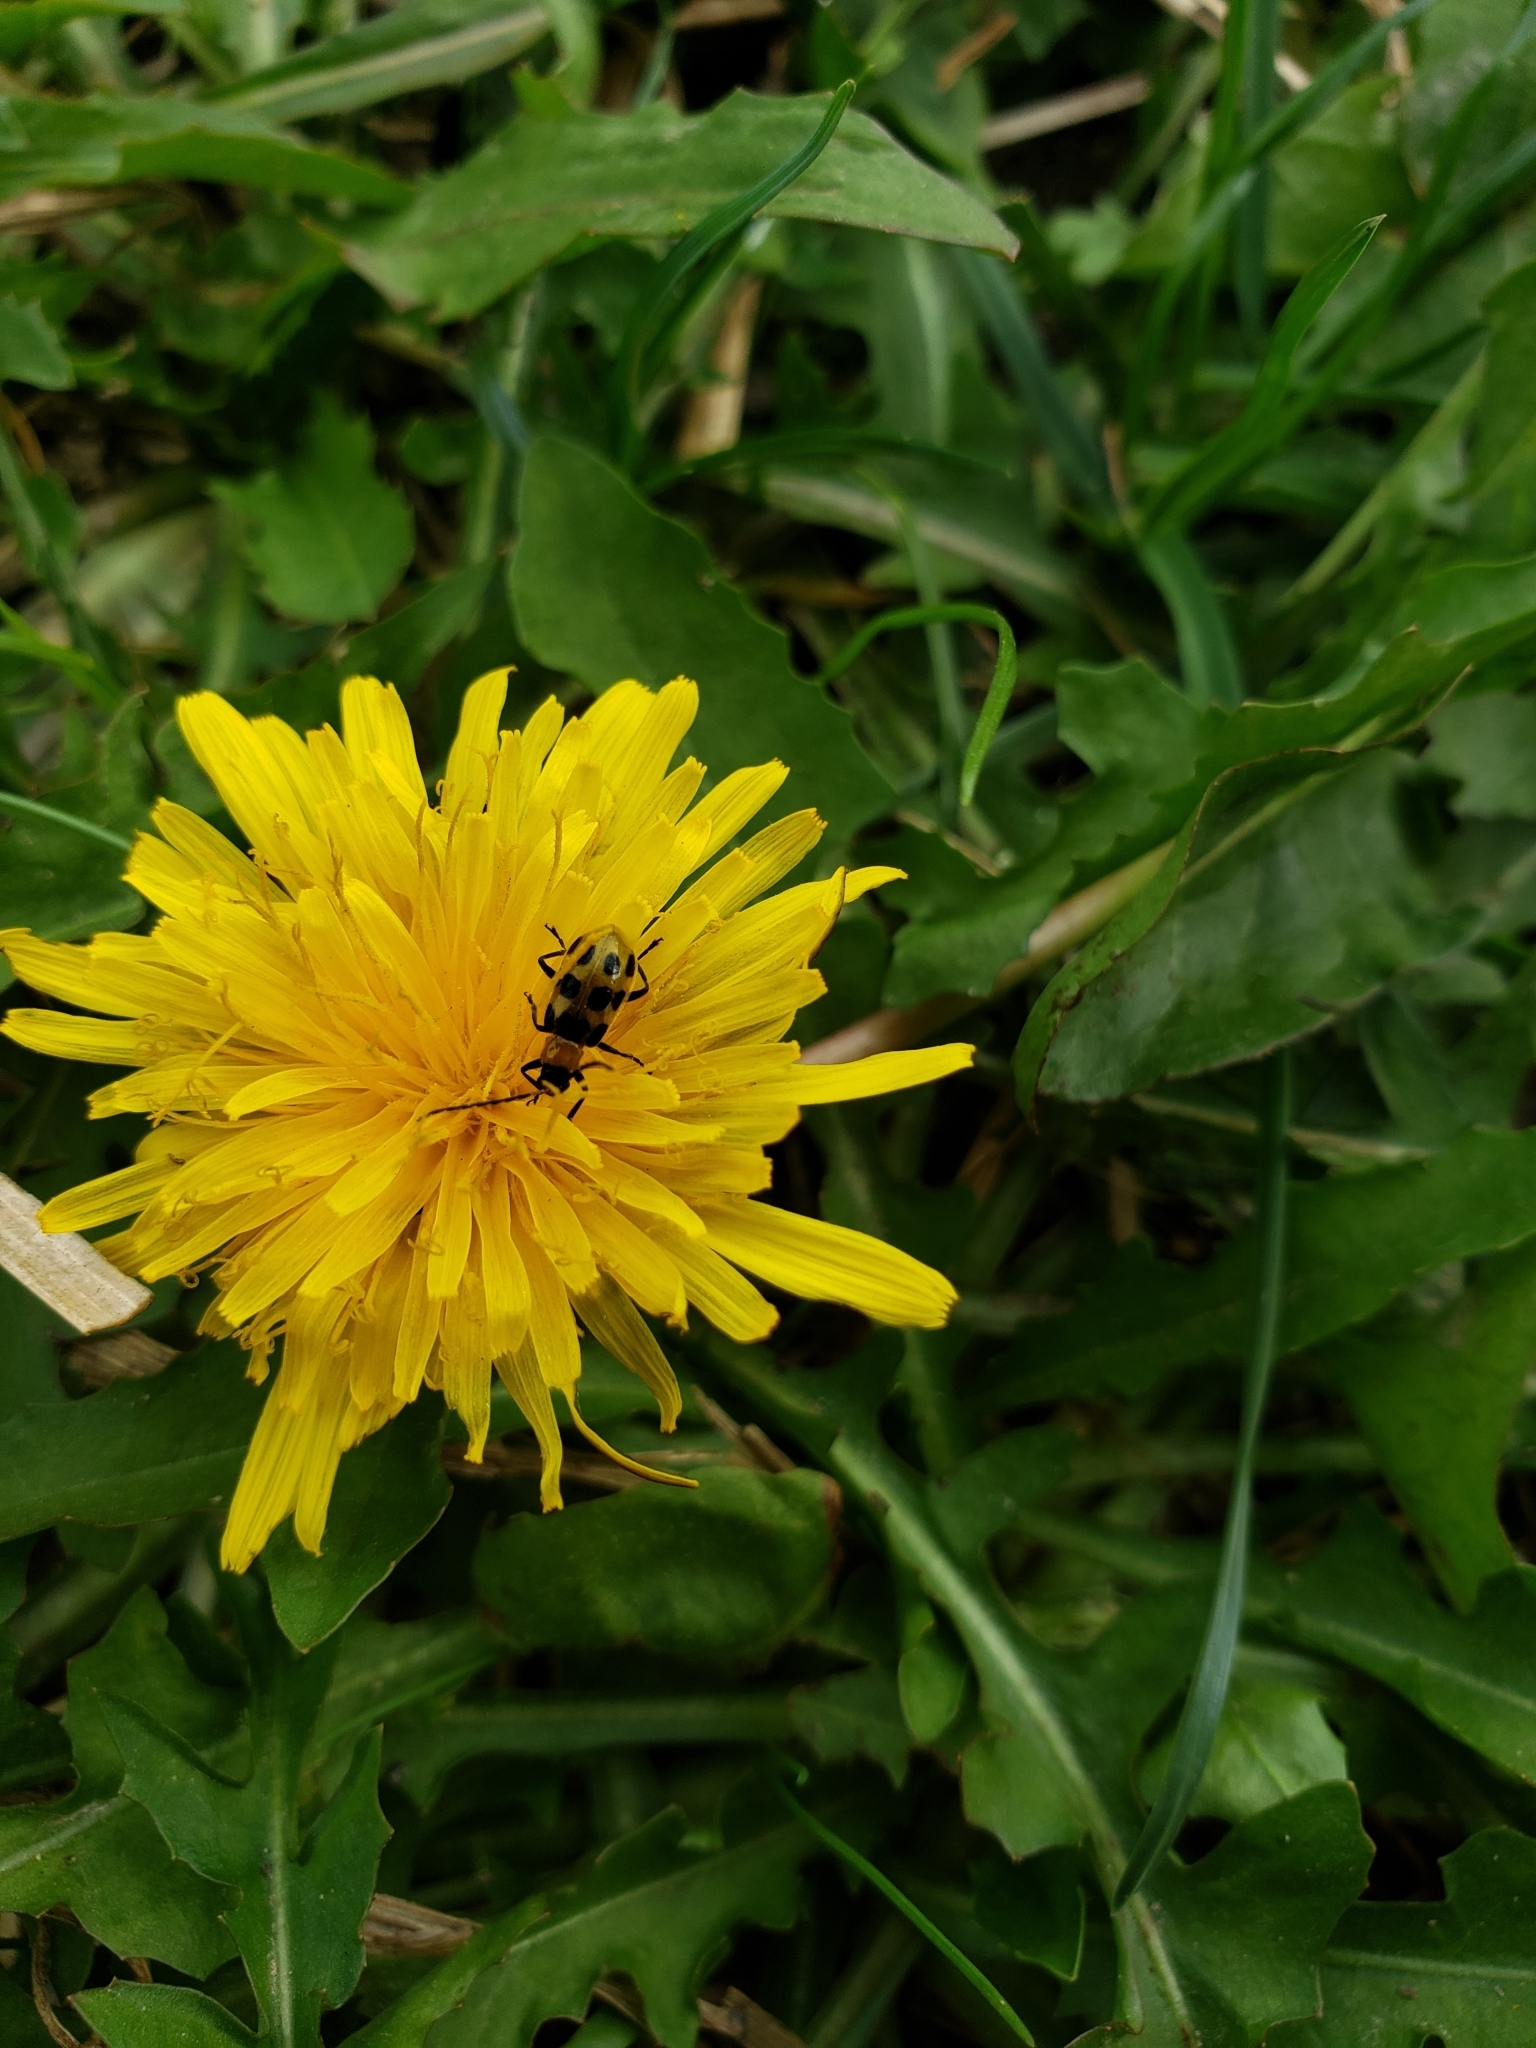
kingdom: Animalia
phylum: Arthropoda
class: Insecta
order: Coleoptera
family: Chrysomelidae
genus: Diabrotica
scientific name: Diabrotica undecimpunctata
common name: Spotted cucumber beetle
